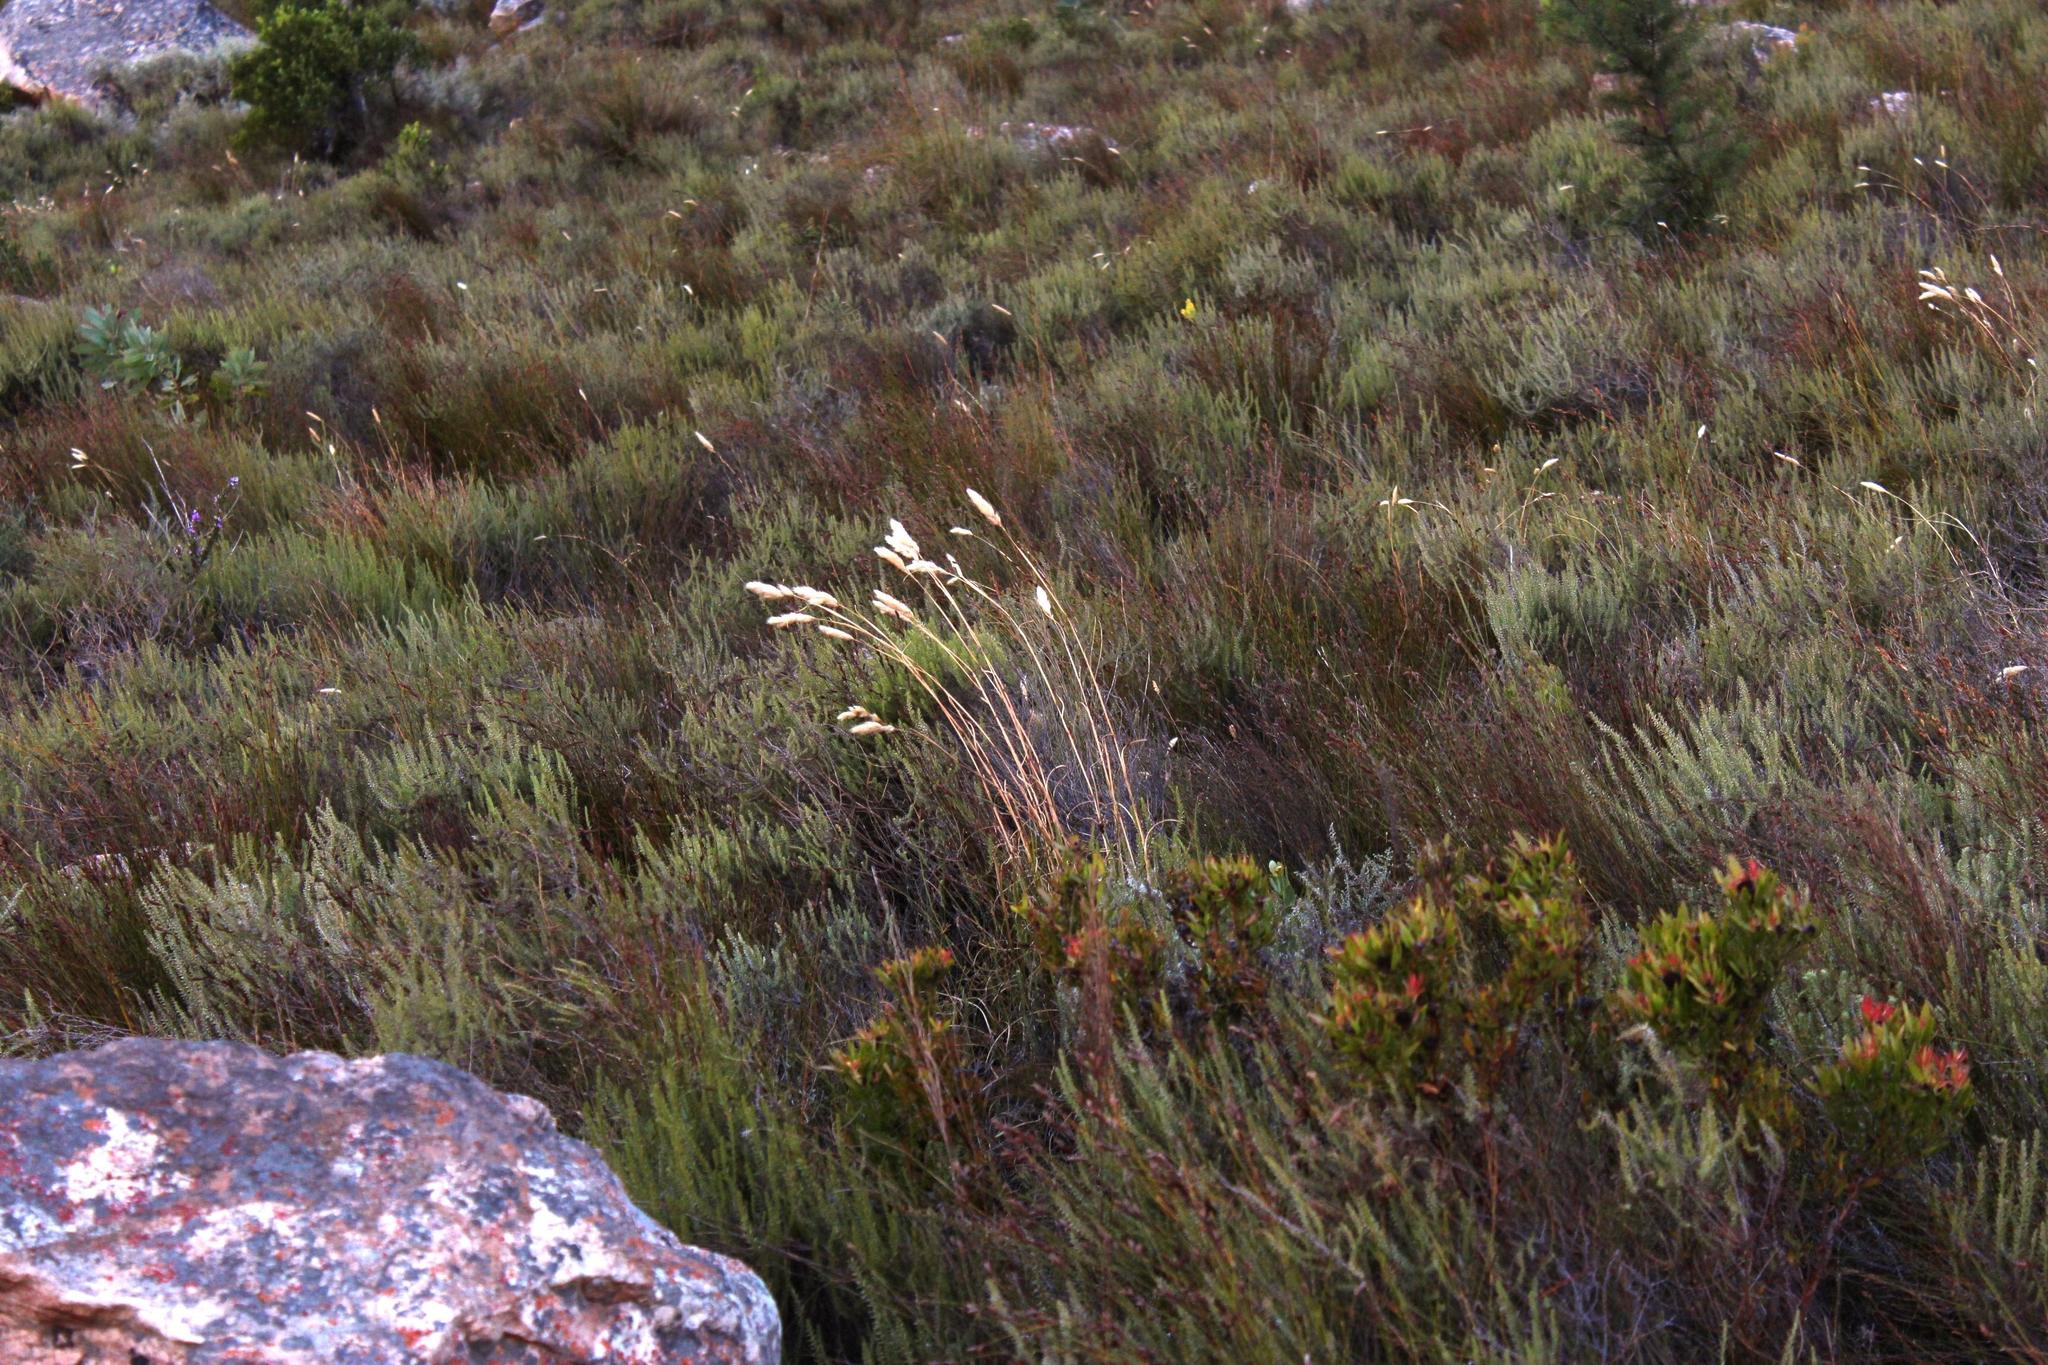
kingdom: Plantae
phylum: Tracheophyta
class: Liliopsida
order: Poales
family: Poaceae
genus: Pentameris
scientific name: Pentameris curvifolia
